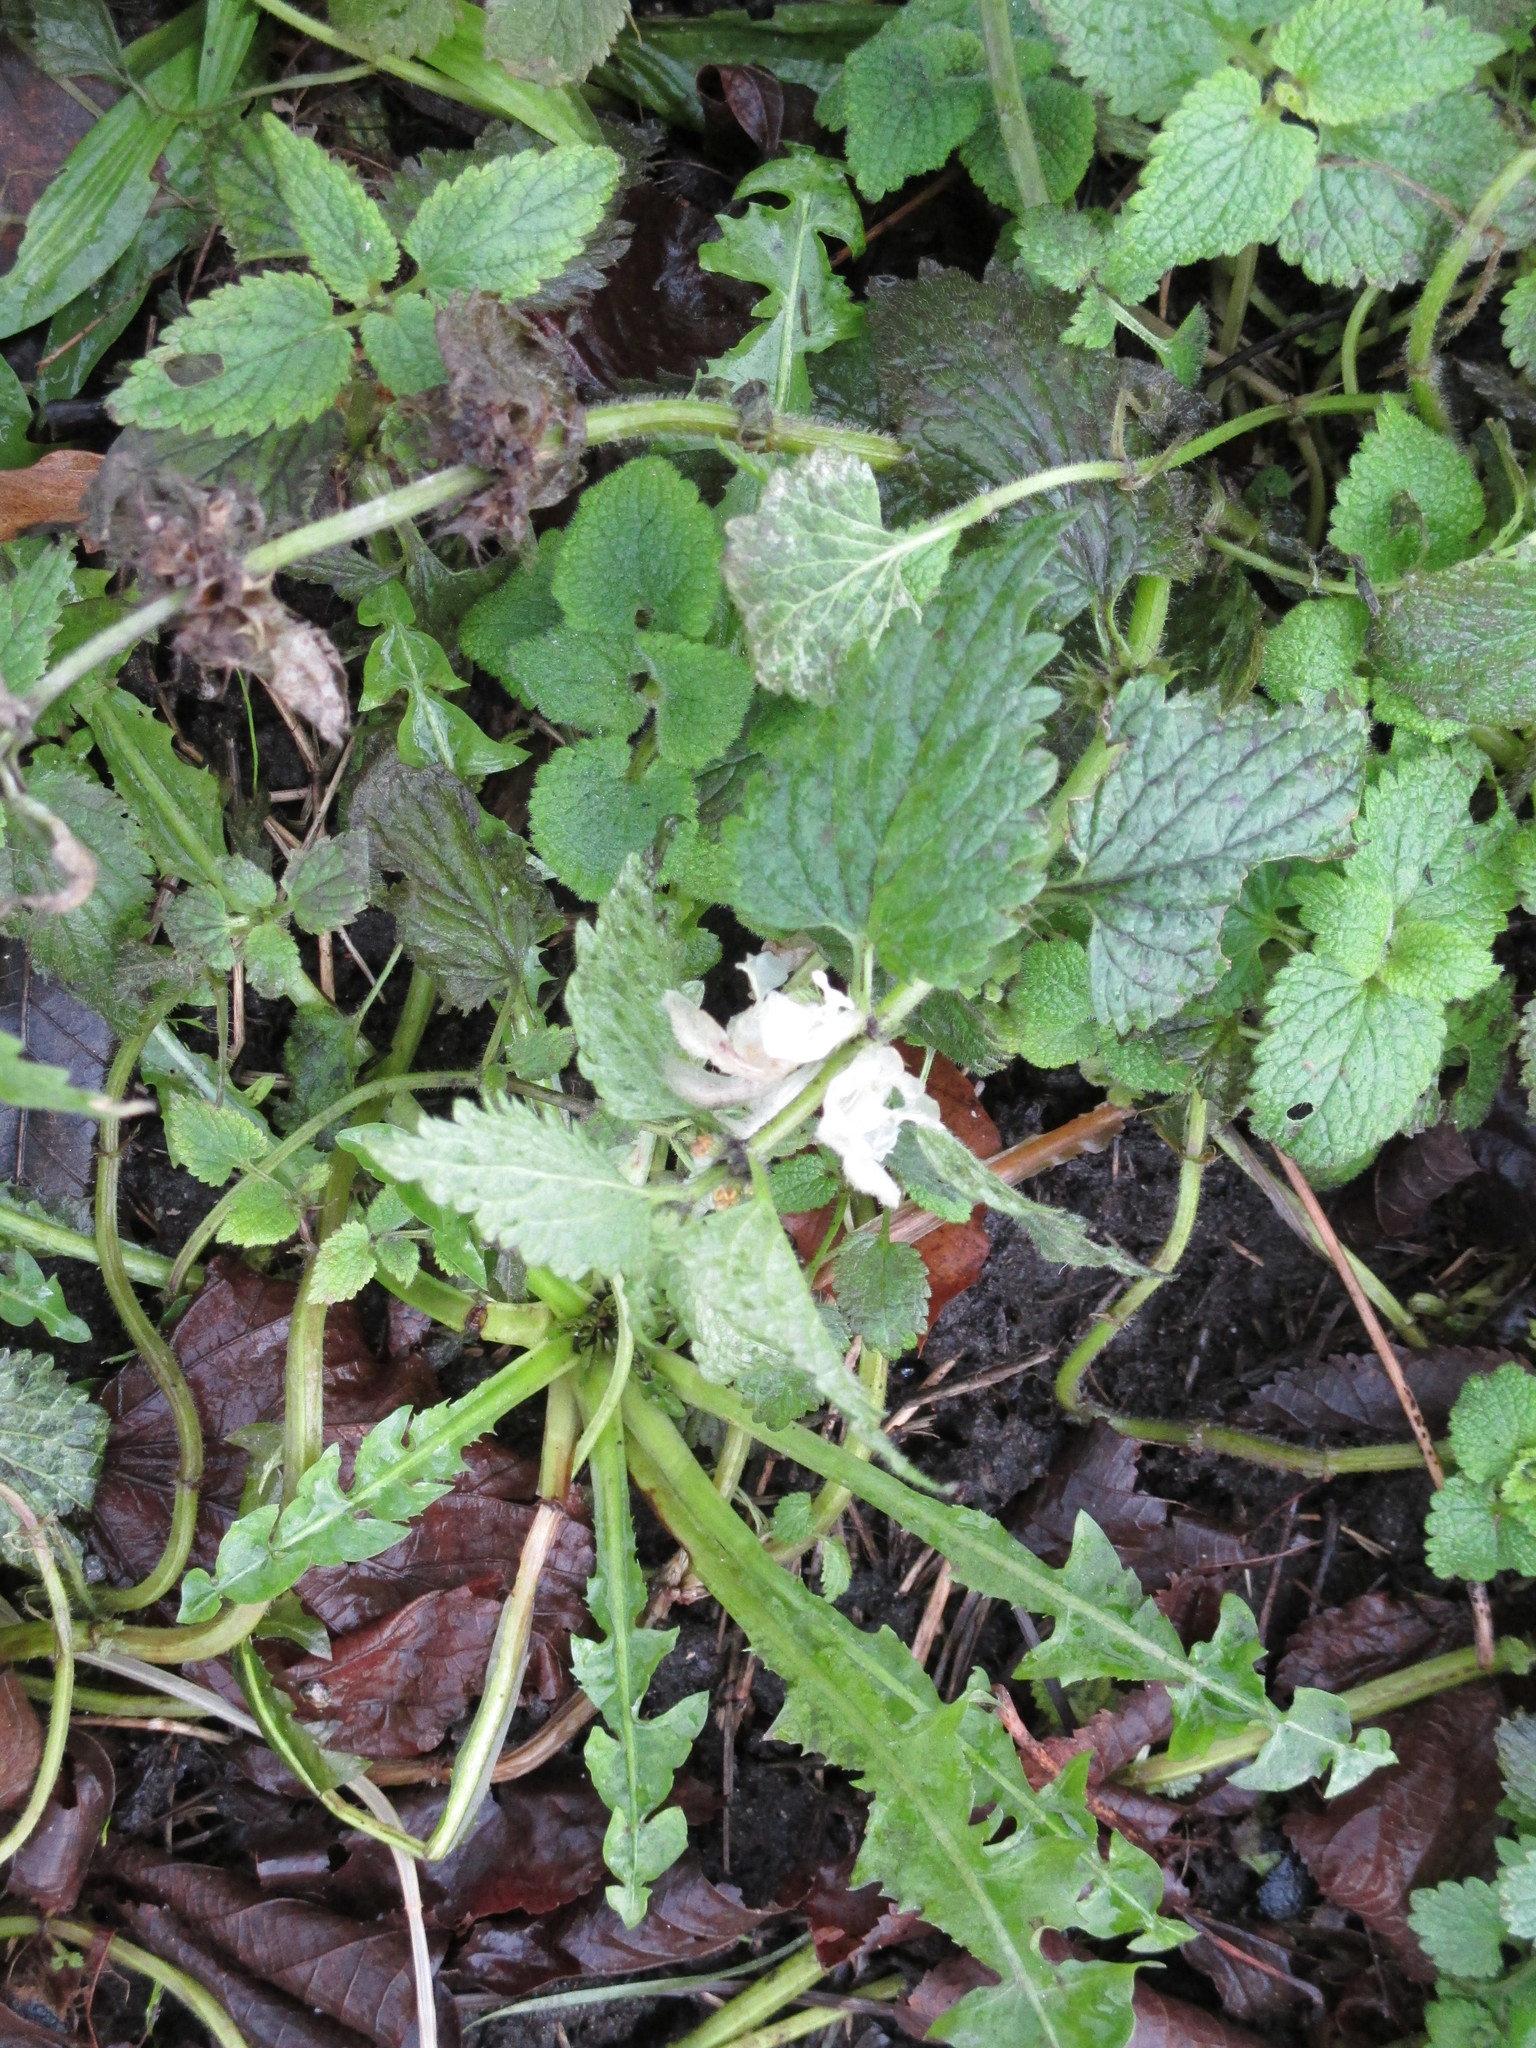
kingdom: Plantae
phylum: Tracheophyta
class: Magnoliopsida
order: Lamiales
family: Lamiaceae
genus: Lamium
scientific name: Lamium album
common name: White dead-nettle
